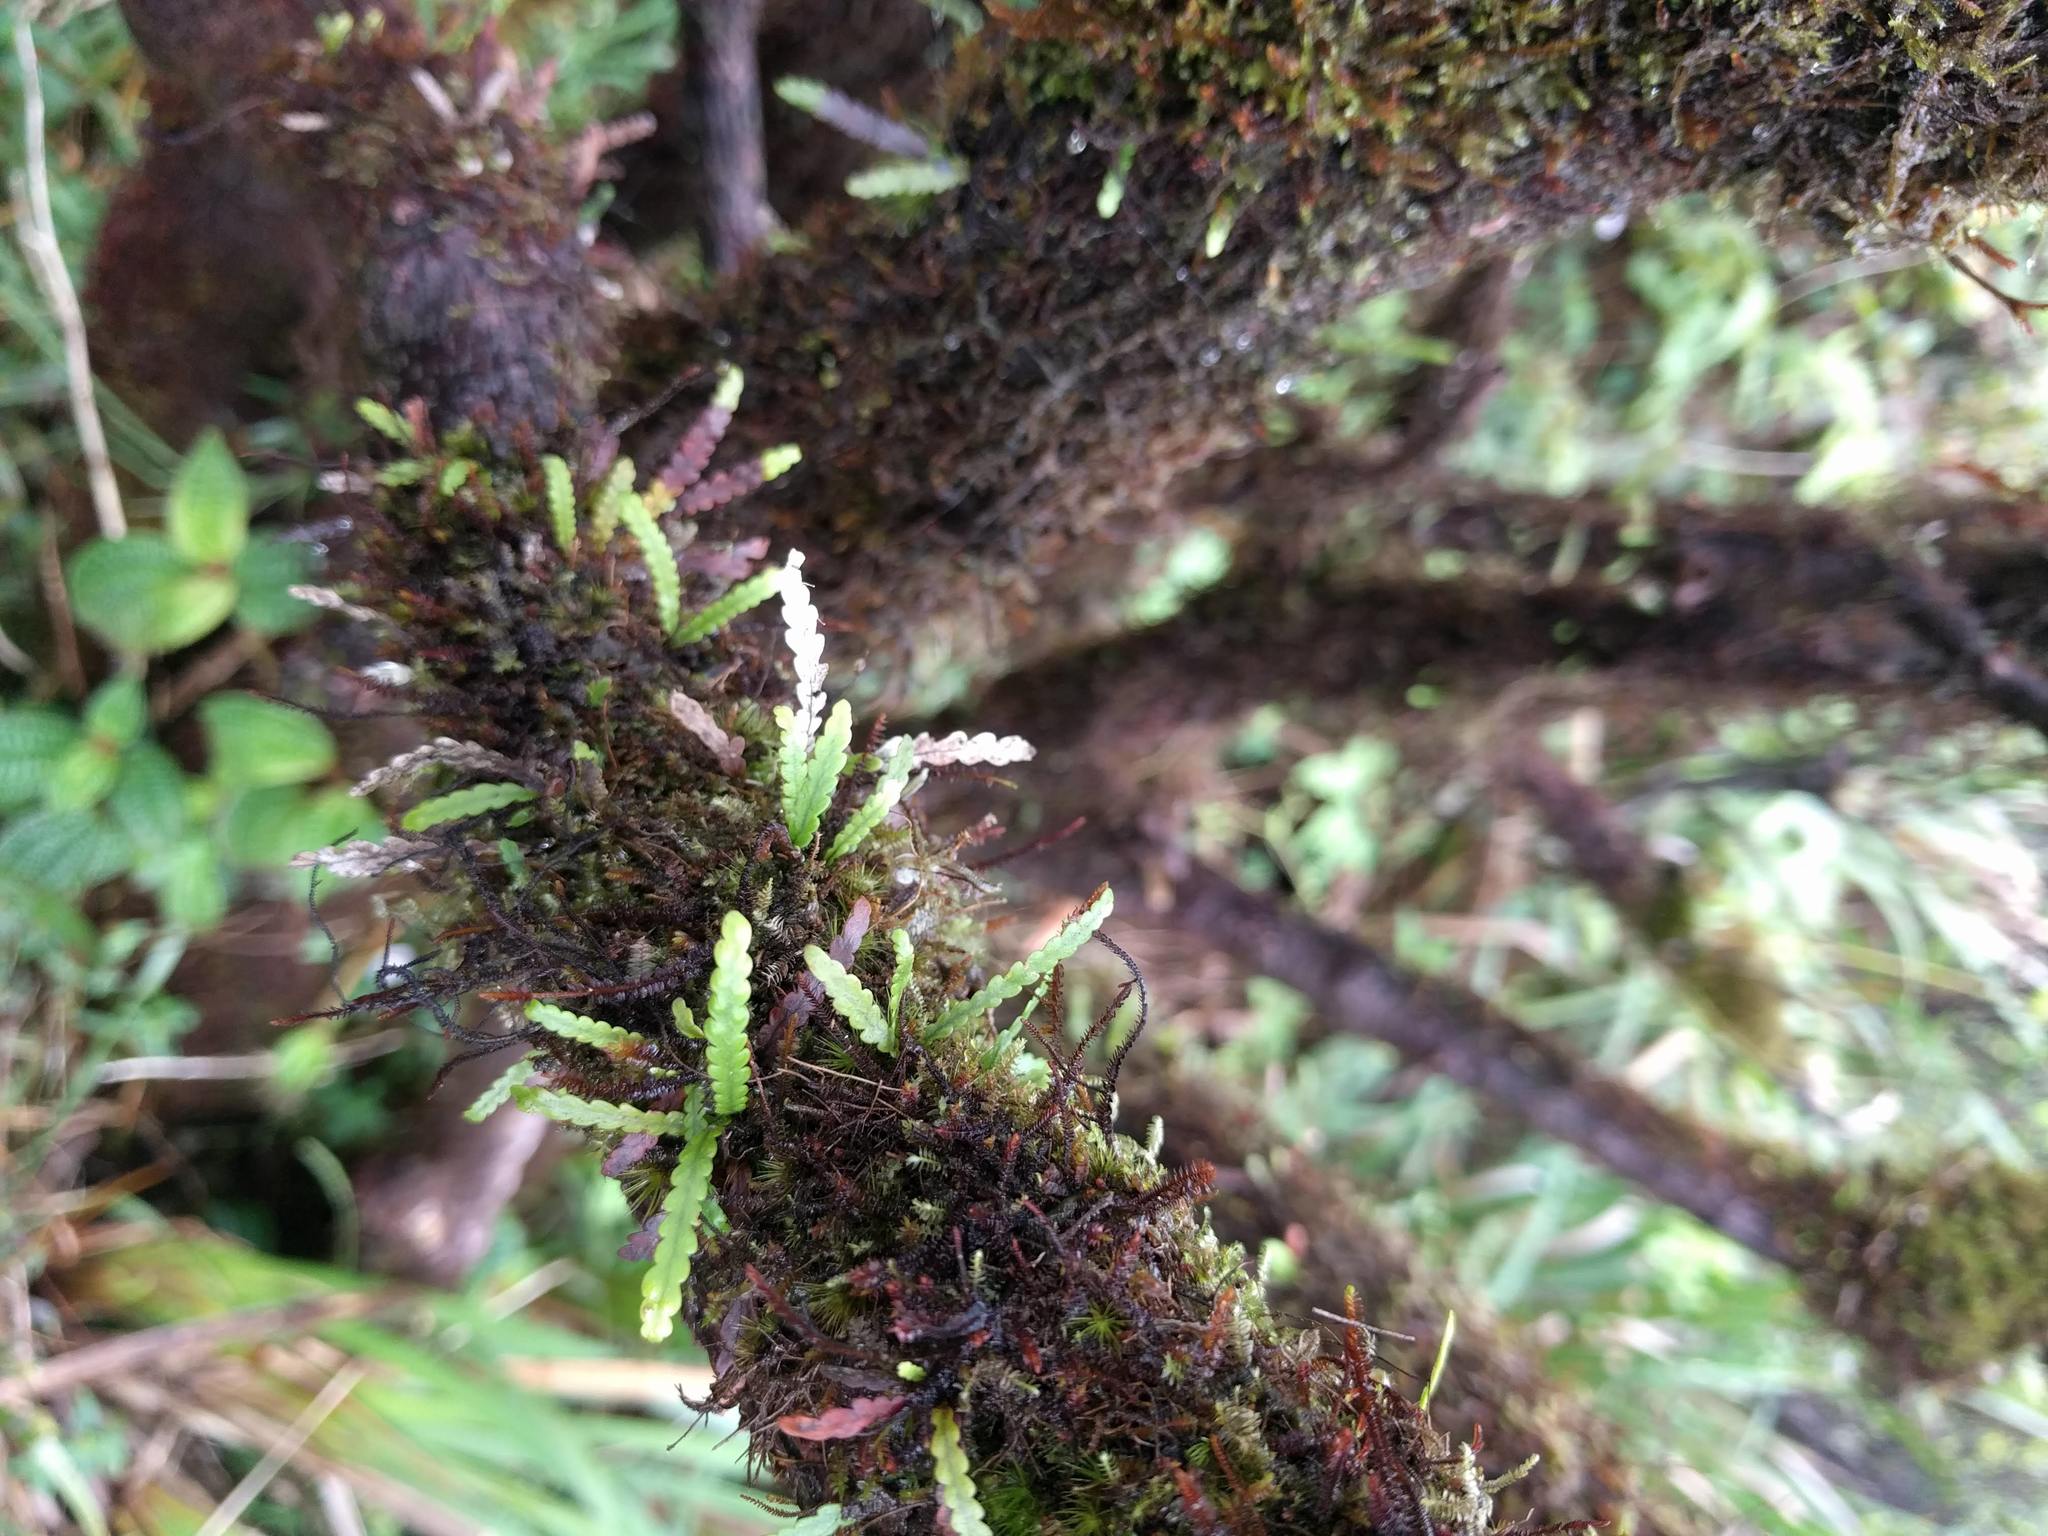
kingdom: Plantae
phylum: Tracheophyta
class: Polypodiopsida
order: Polypodiales
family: Polypodiaceae
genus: Adenophorus
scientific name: Adenophorus haalilioanus
